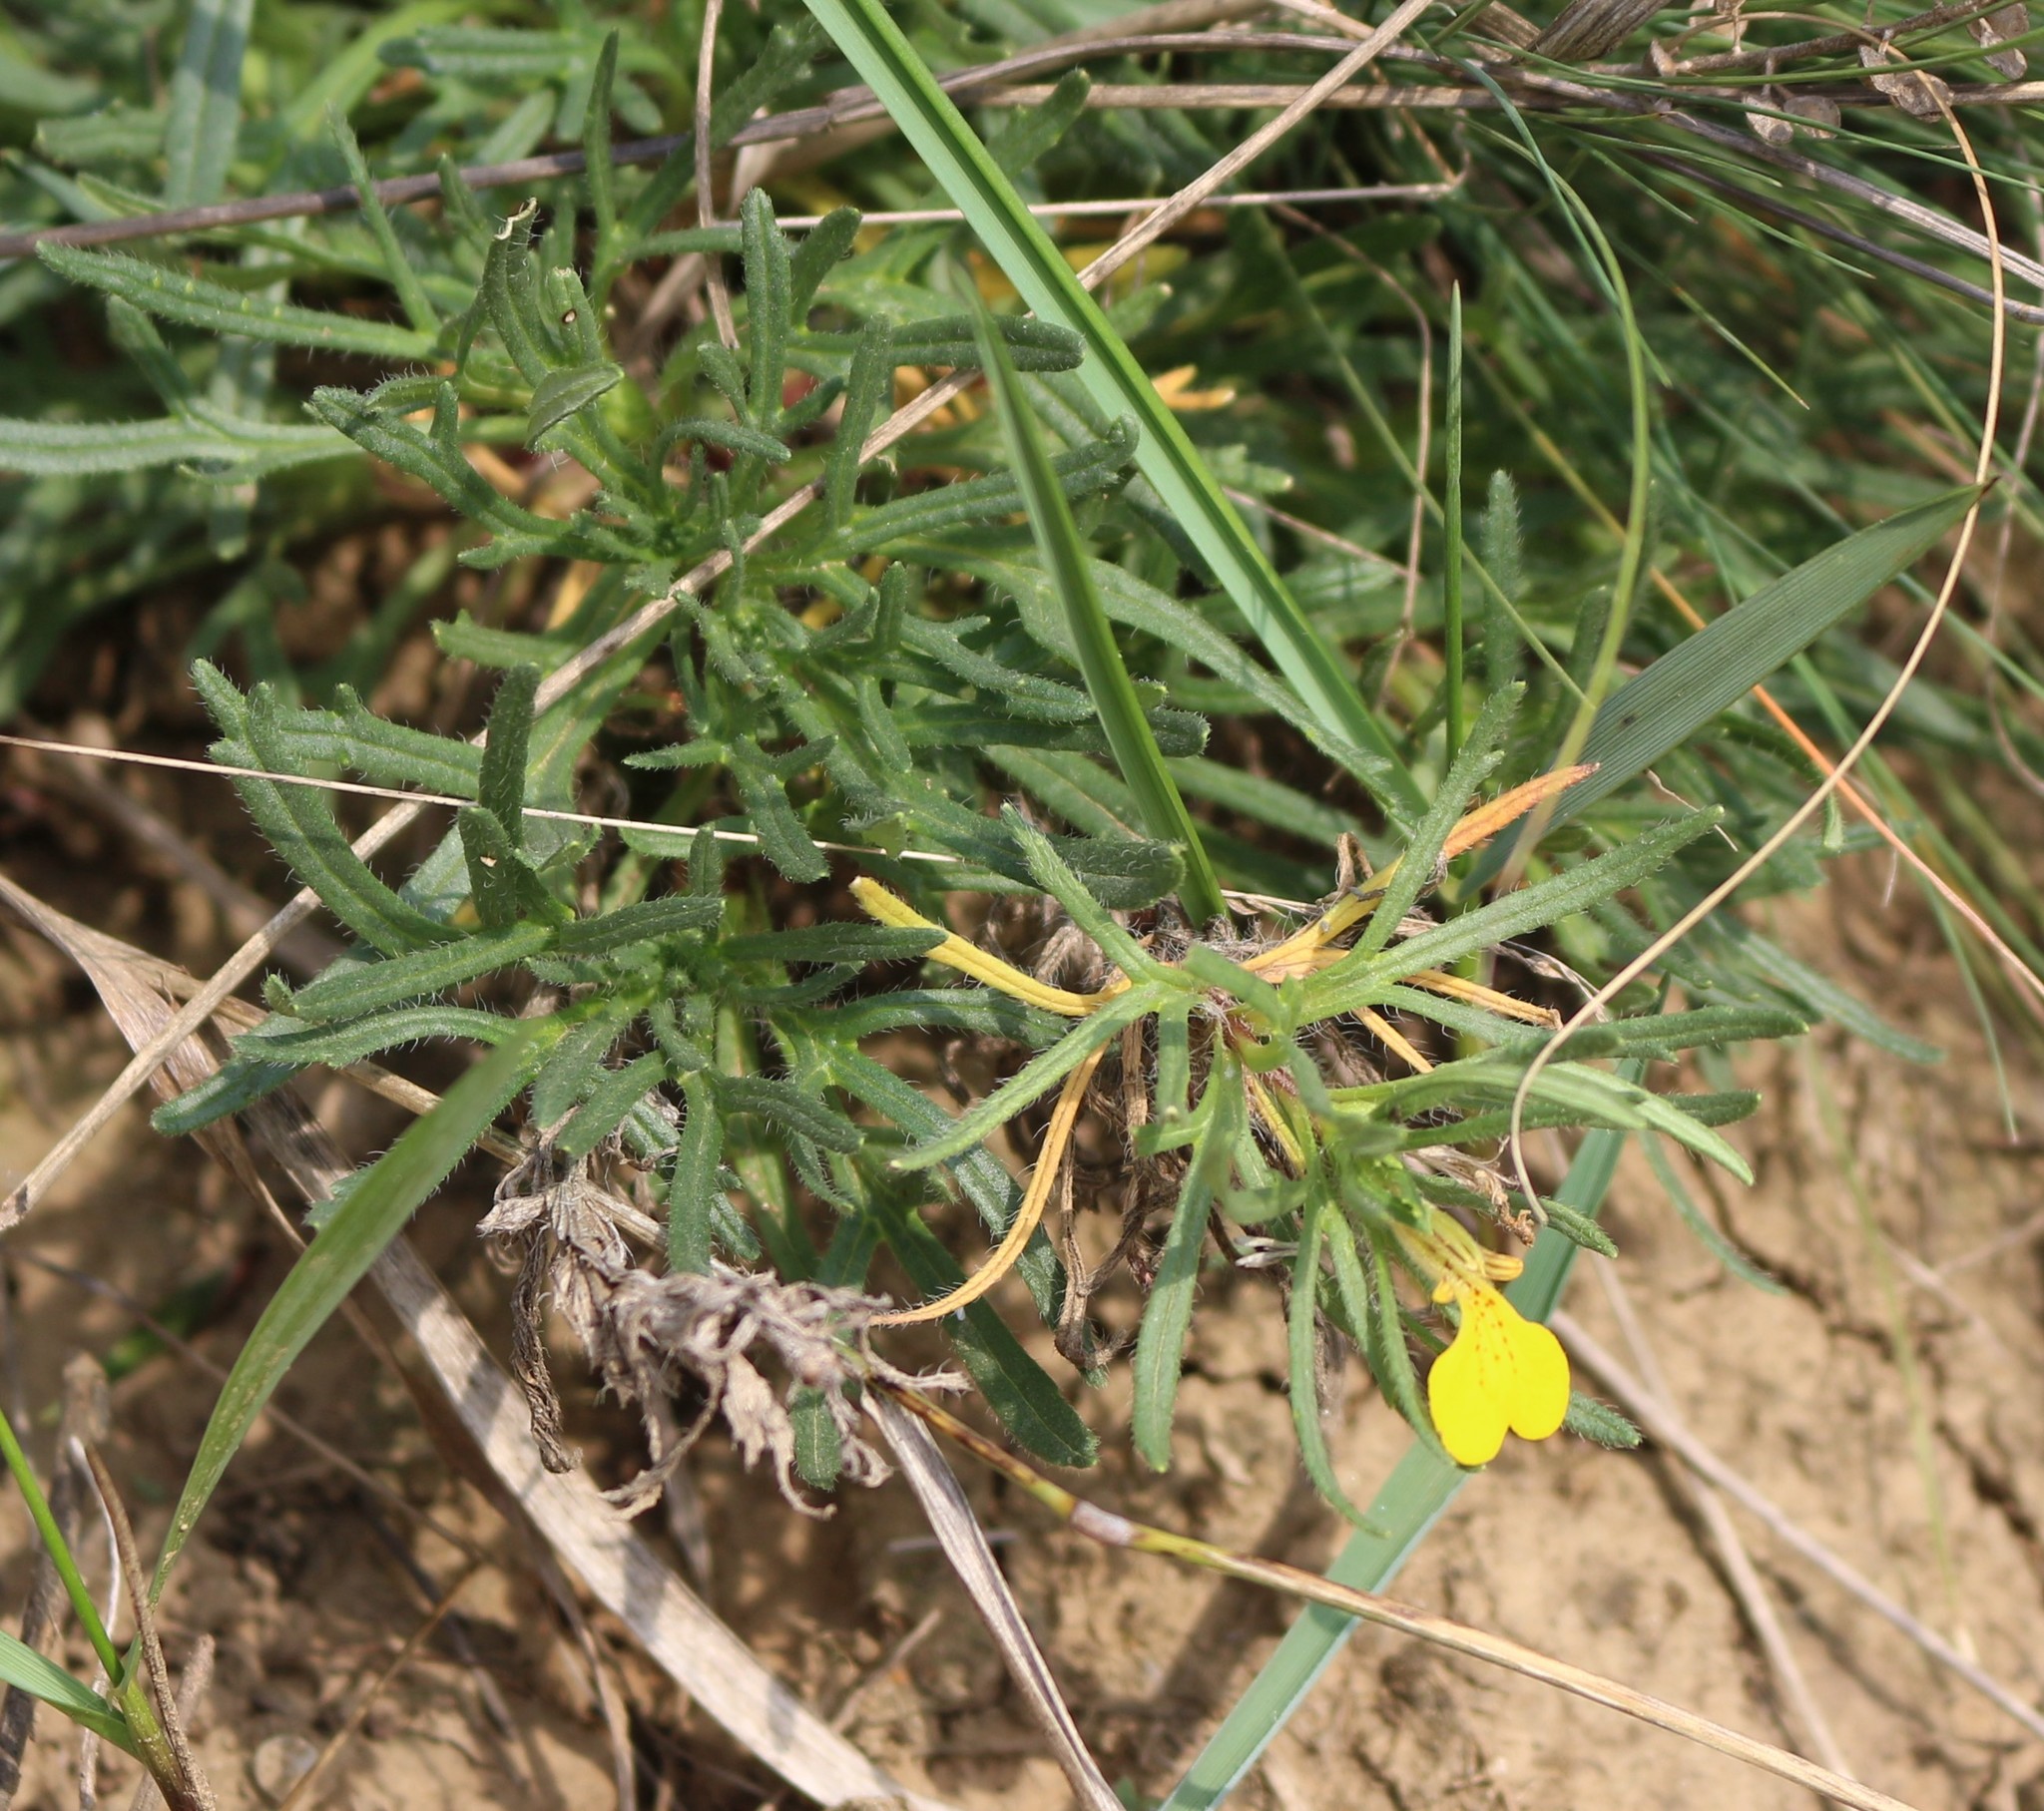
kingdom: Plantae
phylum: Tracheophyta
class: Magnoliopsida
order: Lamiales
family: Lamiaceae
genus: Ajuga
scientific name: Ajuga chamaepitys
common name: Ground-pine
